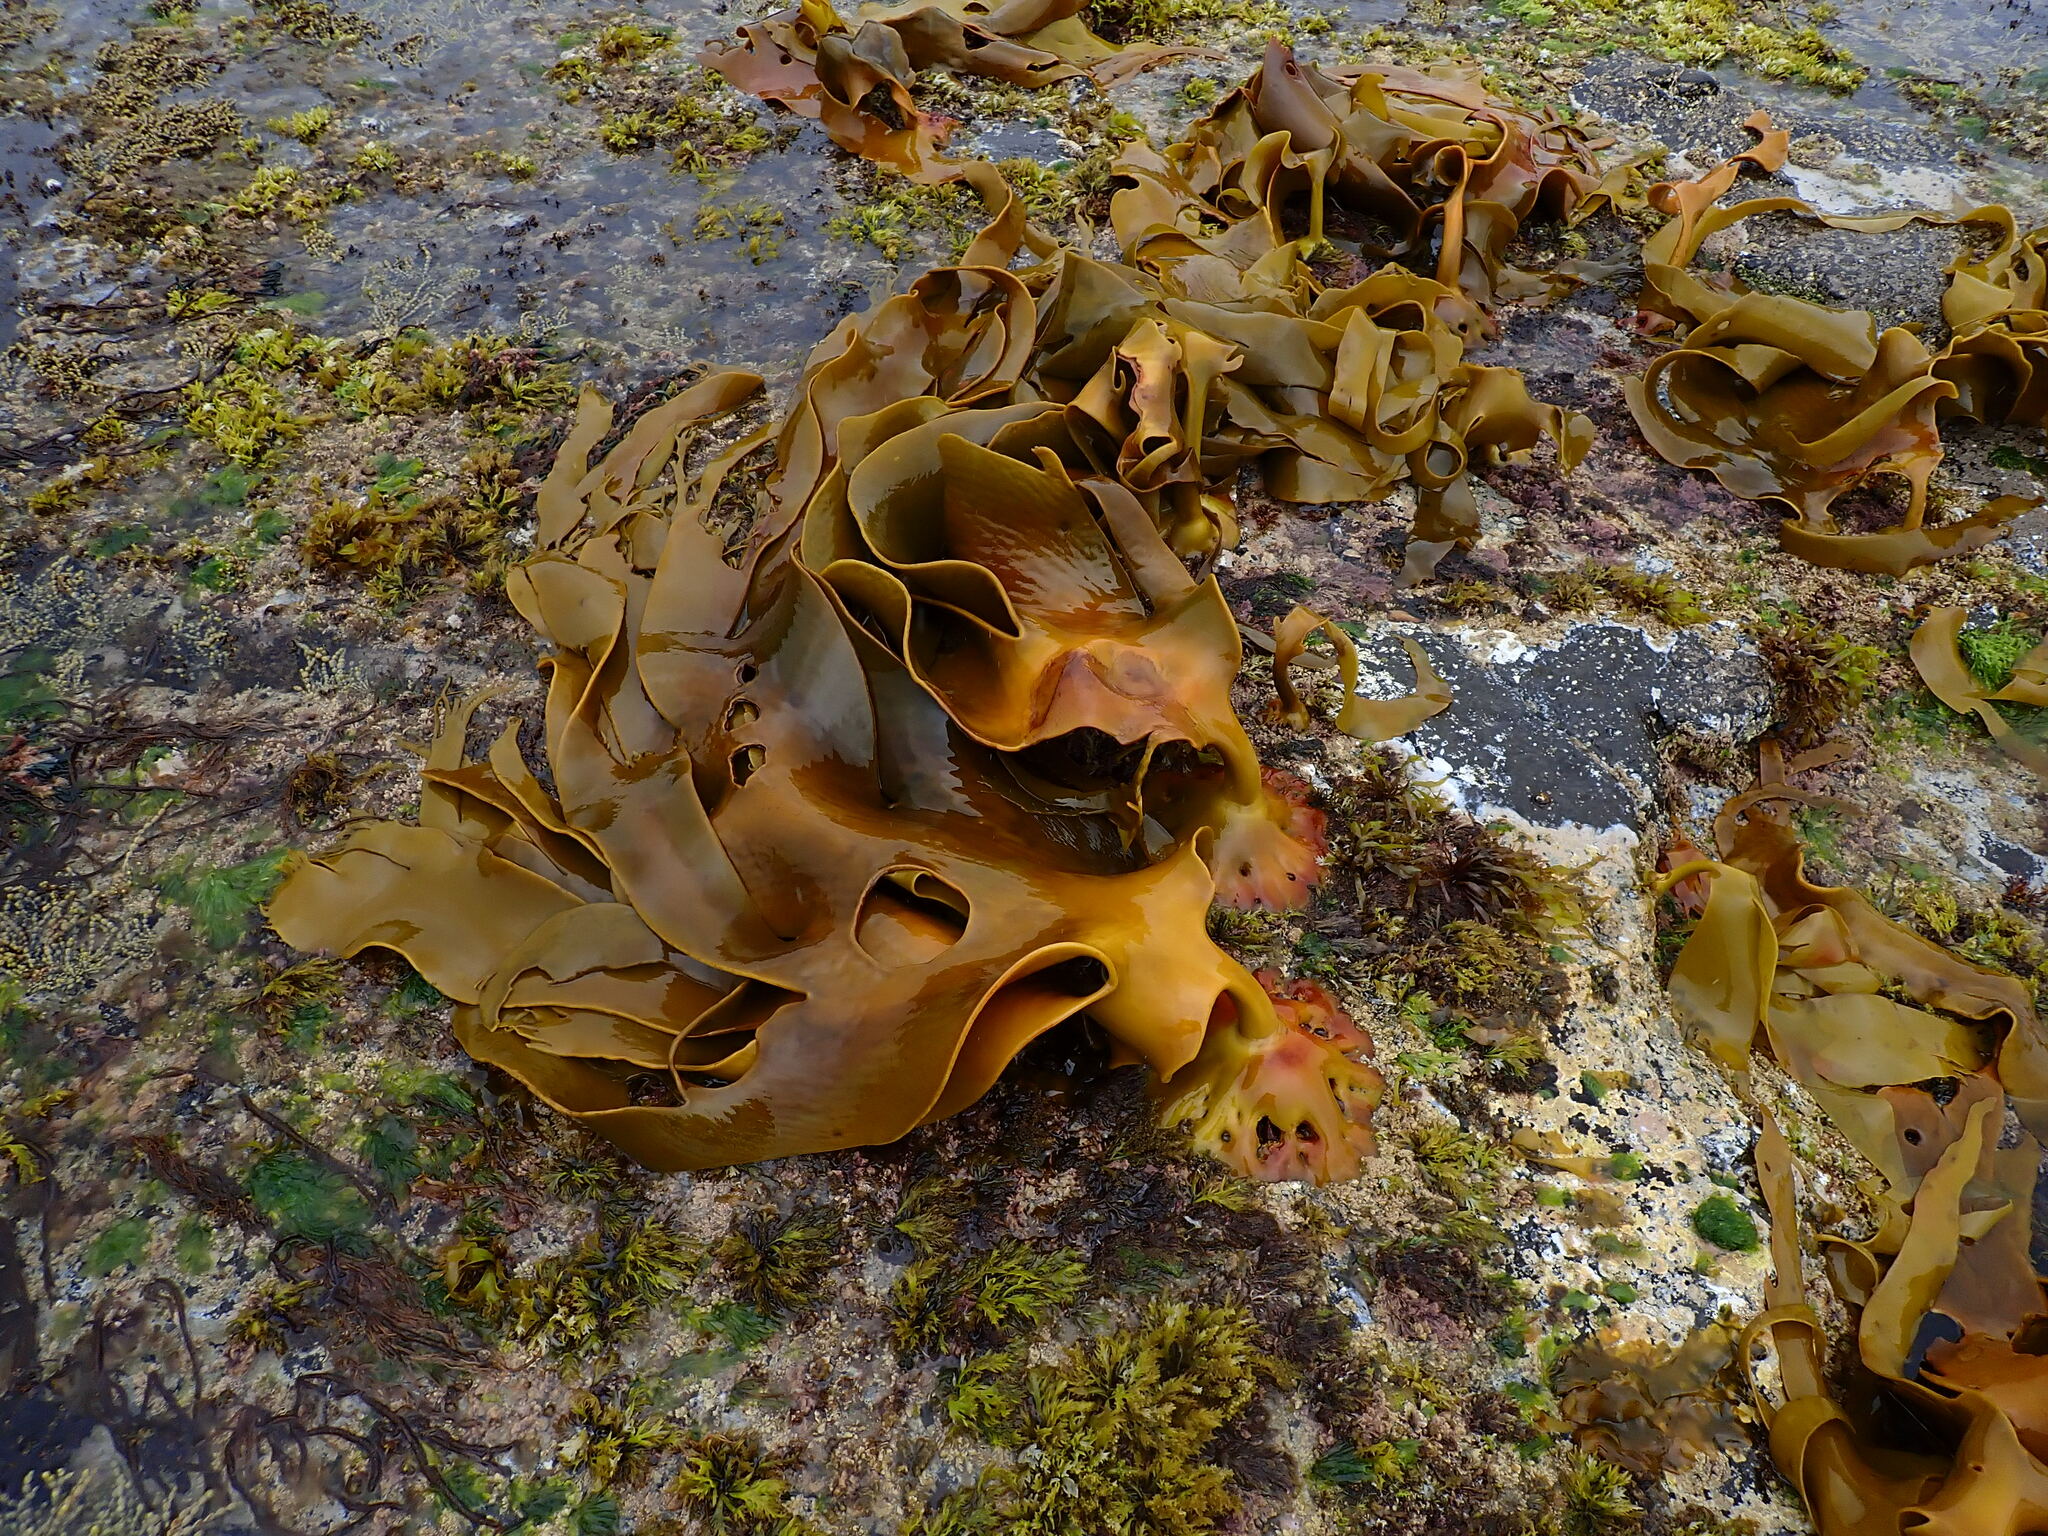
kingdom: Chromista
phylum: Ochrophyta
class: Phaeophyceae
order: Fucales
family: Durvillaeaceae
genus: Durvillaea
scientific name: Durvillaea poha
